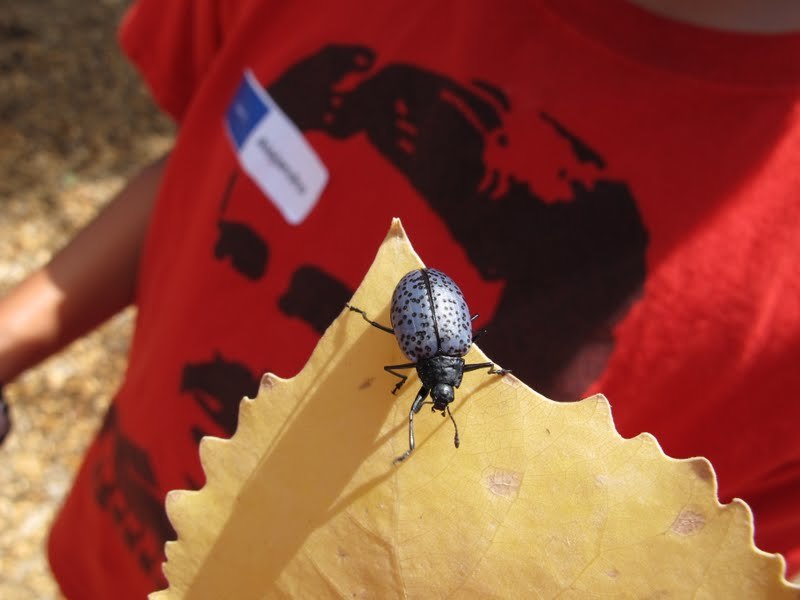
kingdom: Animalia
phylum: Arthropoda
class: Insecta
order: Coleoptera
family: Erotylidae
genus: Gibbifer
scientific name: Gibbifer californicus
